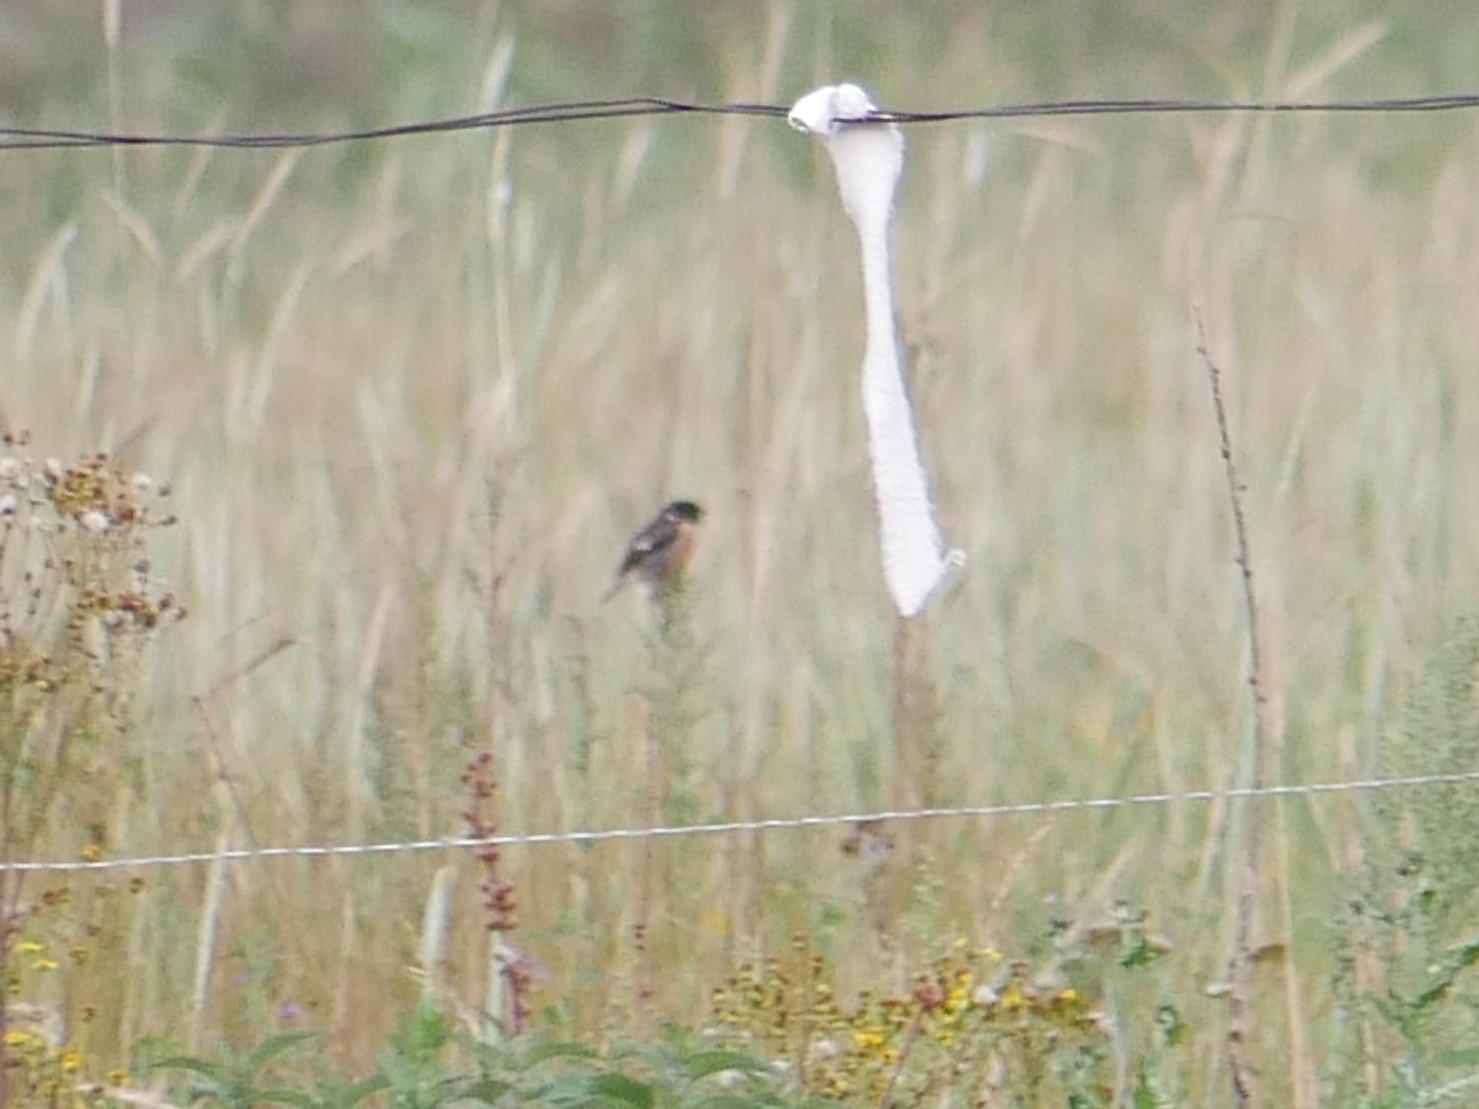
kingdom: Animalia
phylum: Chordata
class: Aves
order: Passeriformes
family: Muscicapidae
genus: Saxicola
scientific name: Saxicola rubicola
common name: European stonechat
